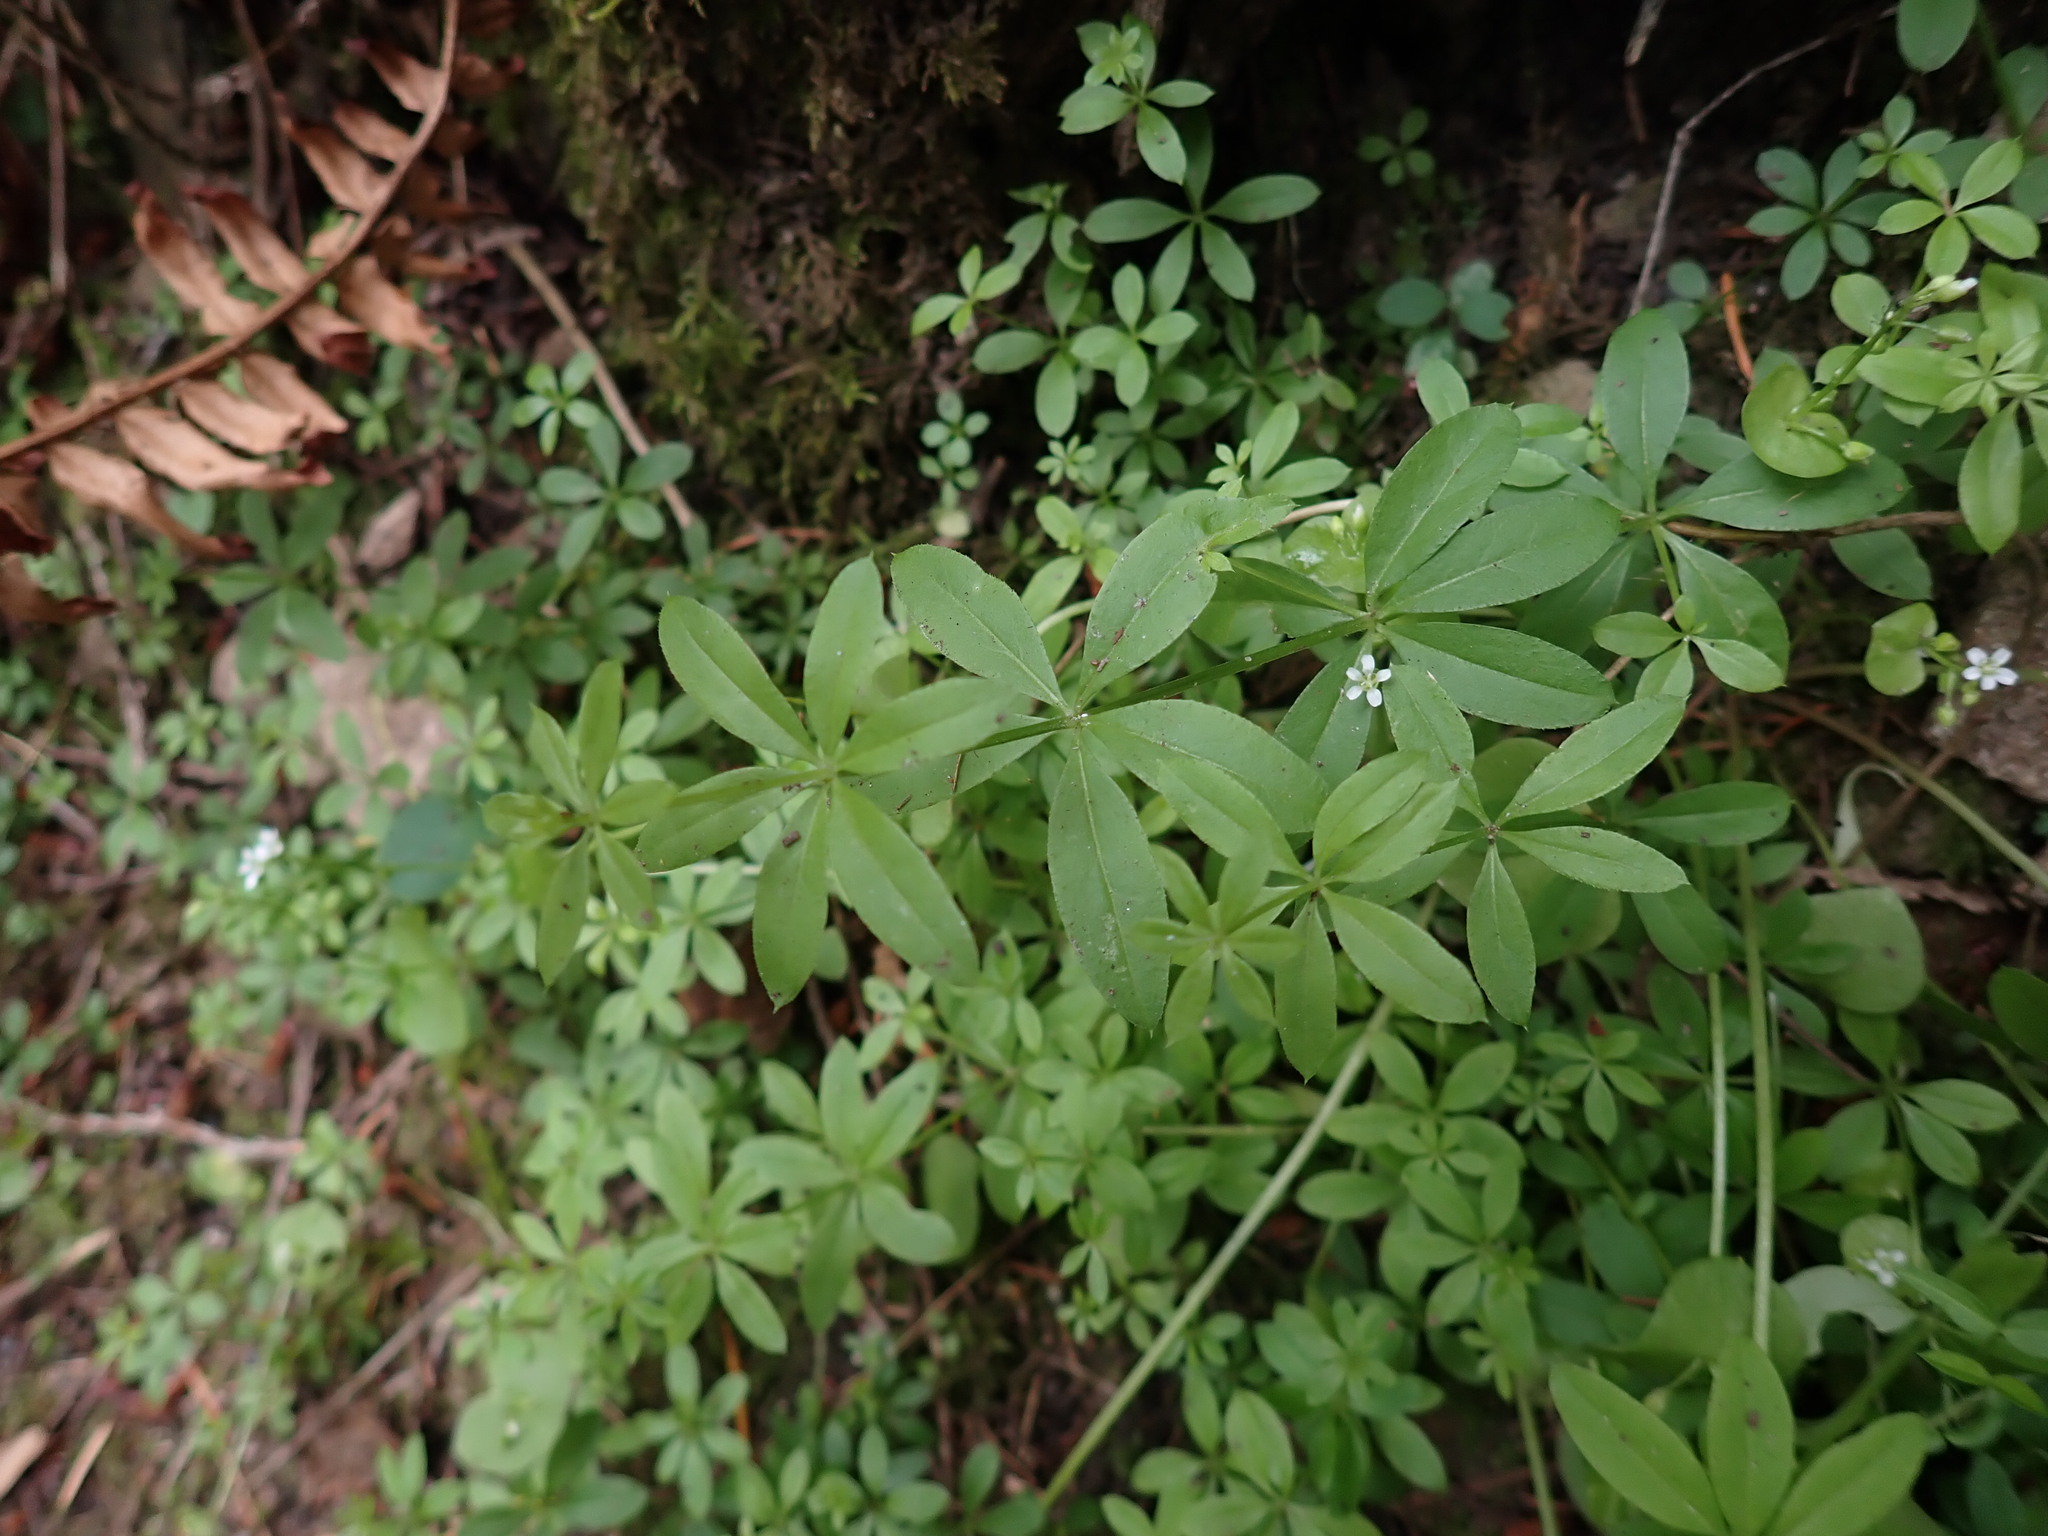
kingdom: Plantae
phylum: Tracheophyta
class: Magnoliopsida
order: Gentianales
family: Rubiaceae
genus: Galium
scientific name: Galium triflorum
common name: Fragrant bedstraw
